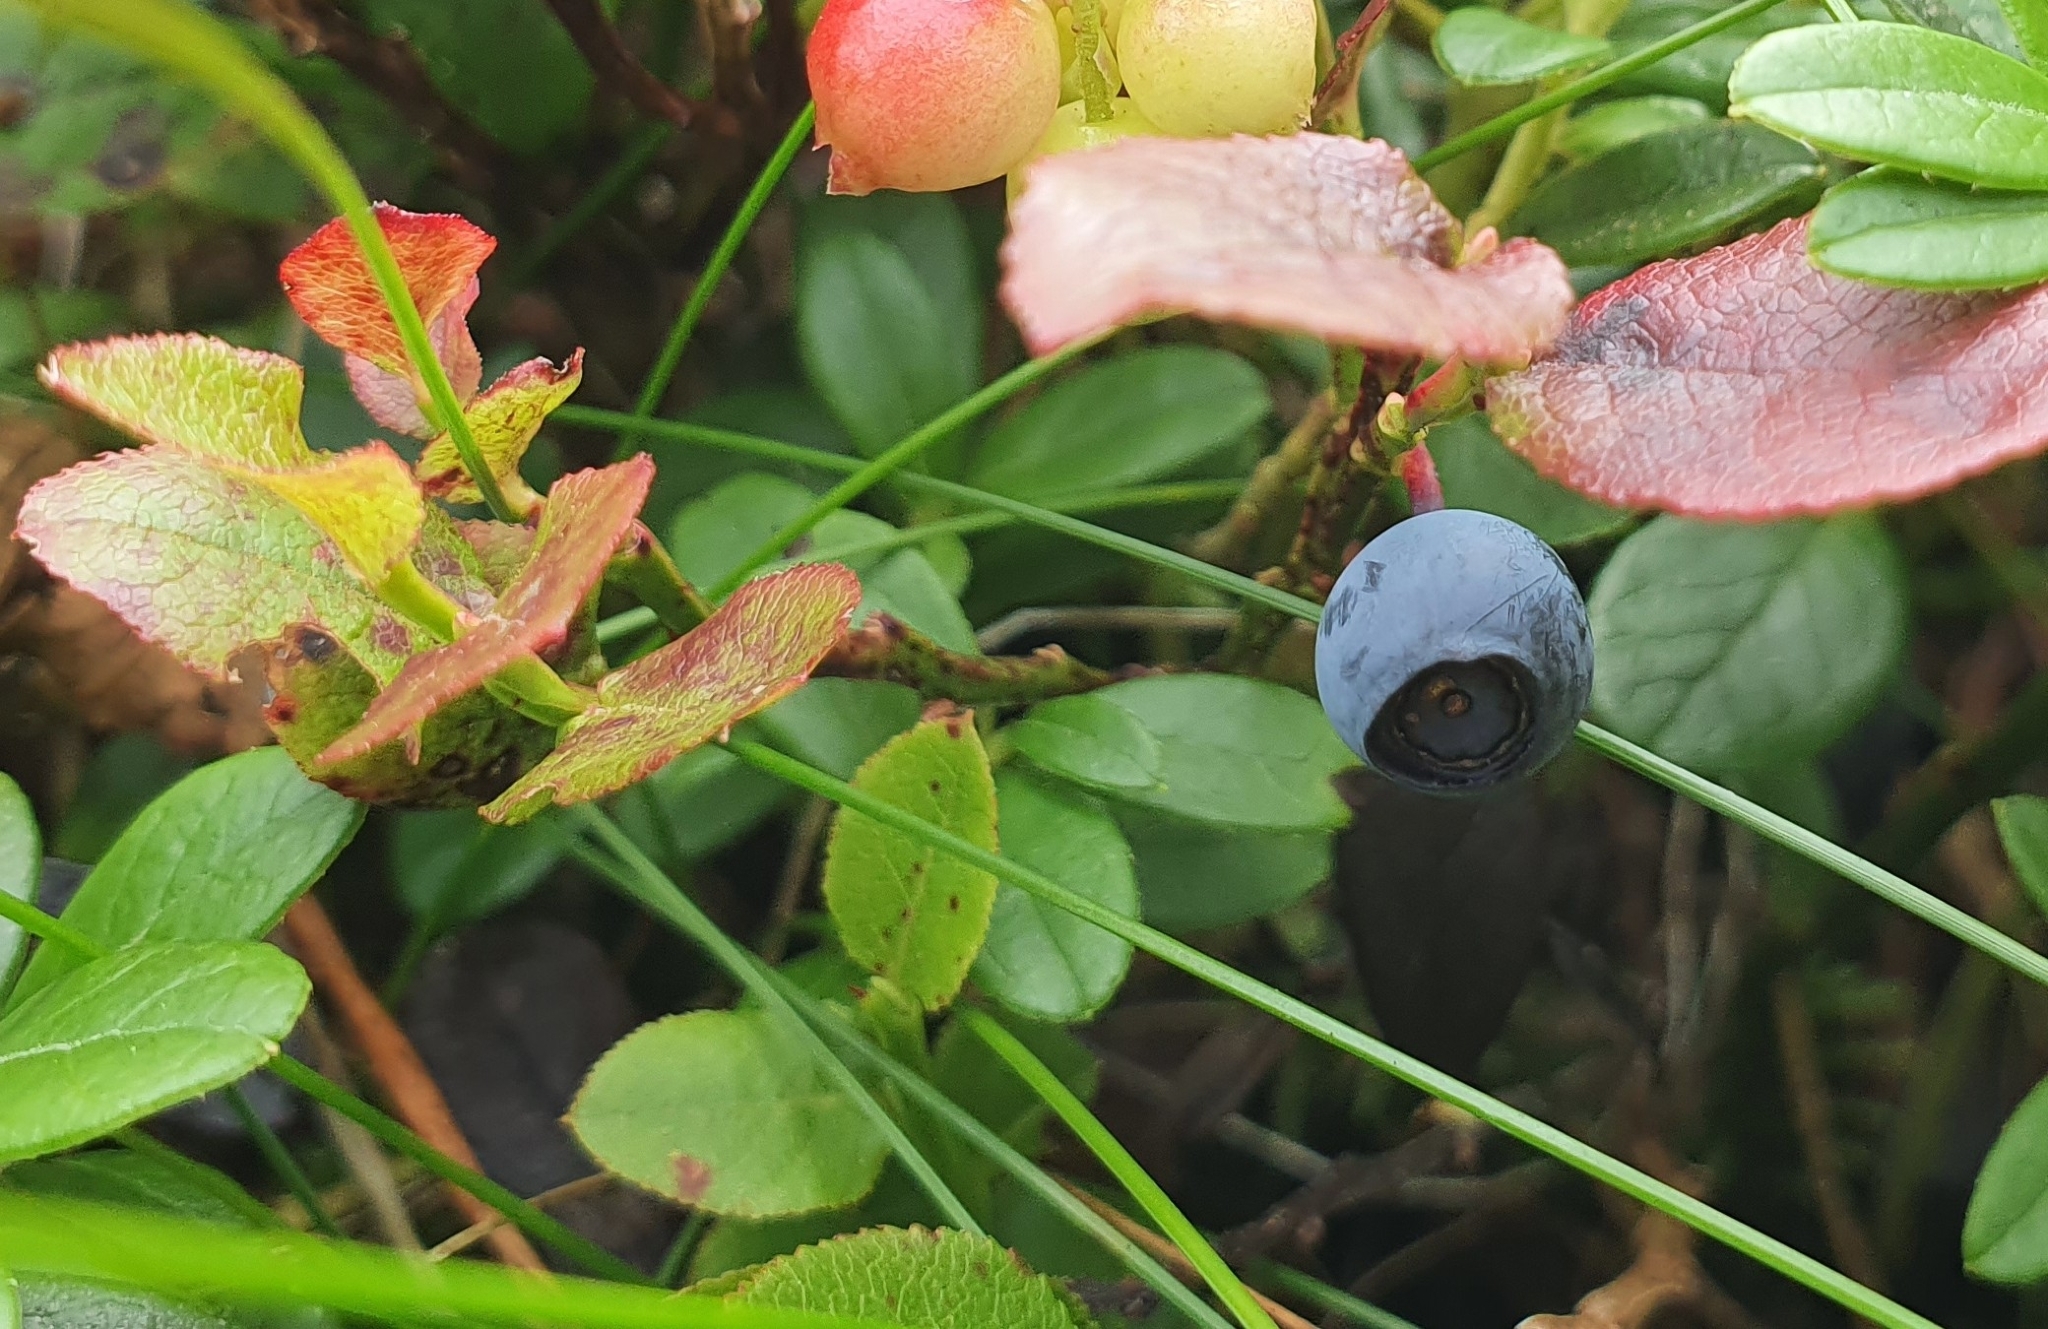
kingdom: Plantae
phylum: Tracheophyta
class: Magnoliopsida
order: Ericales
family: Ericaceae
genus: Vaccinium
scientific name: Vaccinium myrtillus
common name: Bilberry
